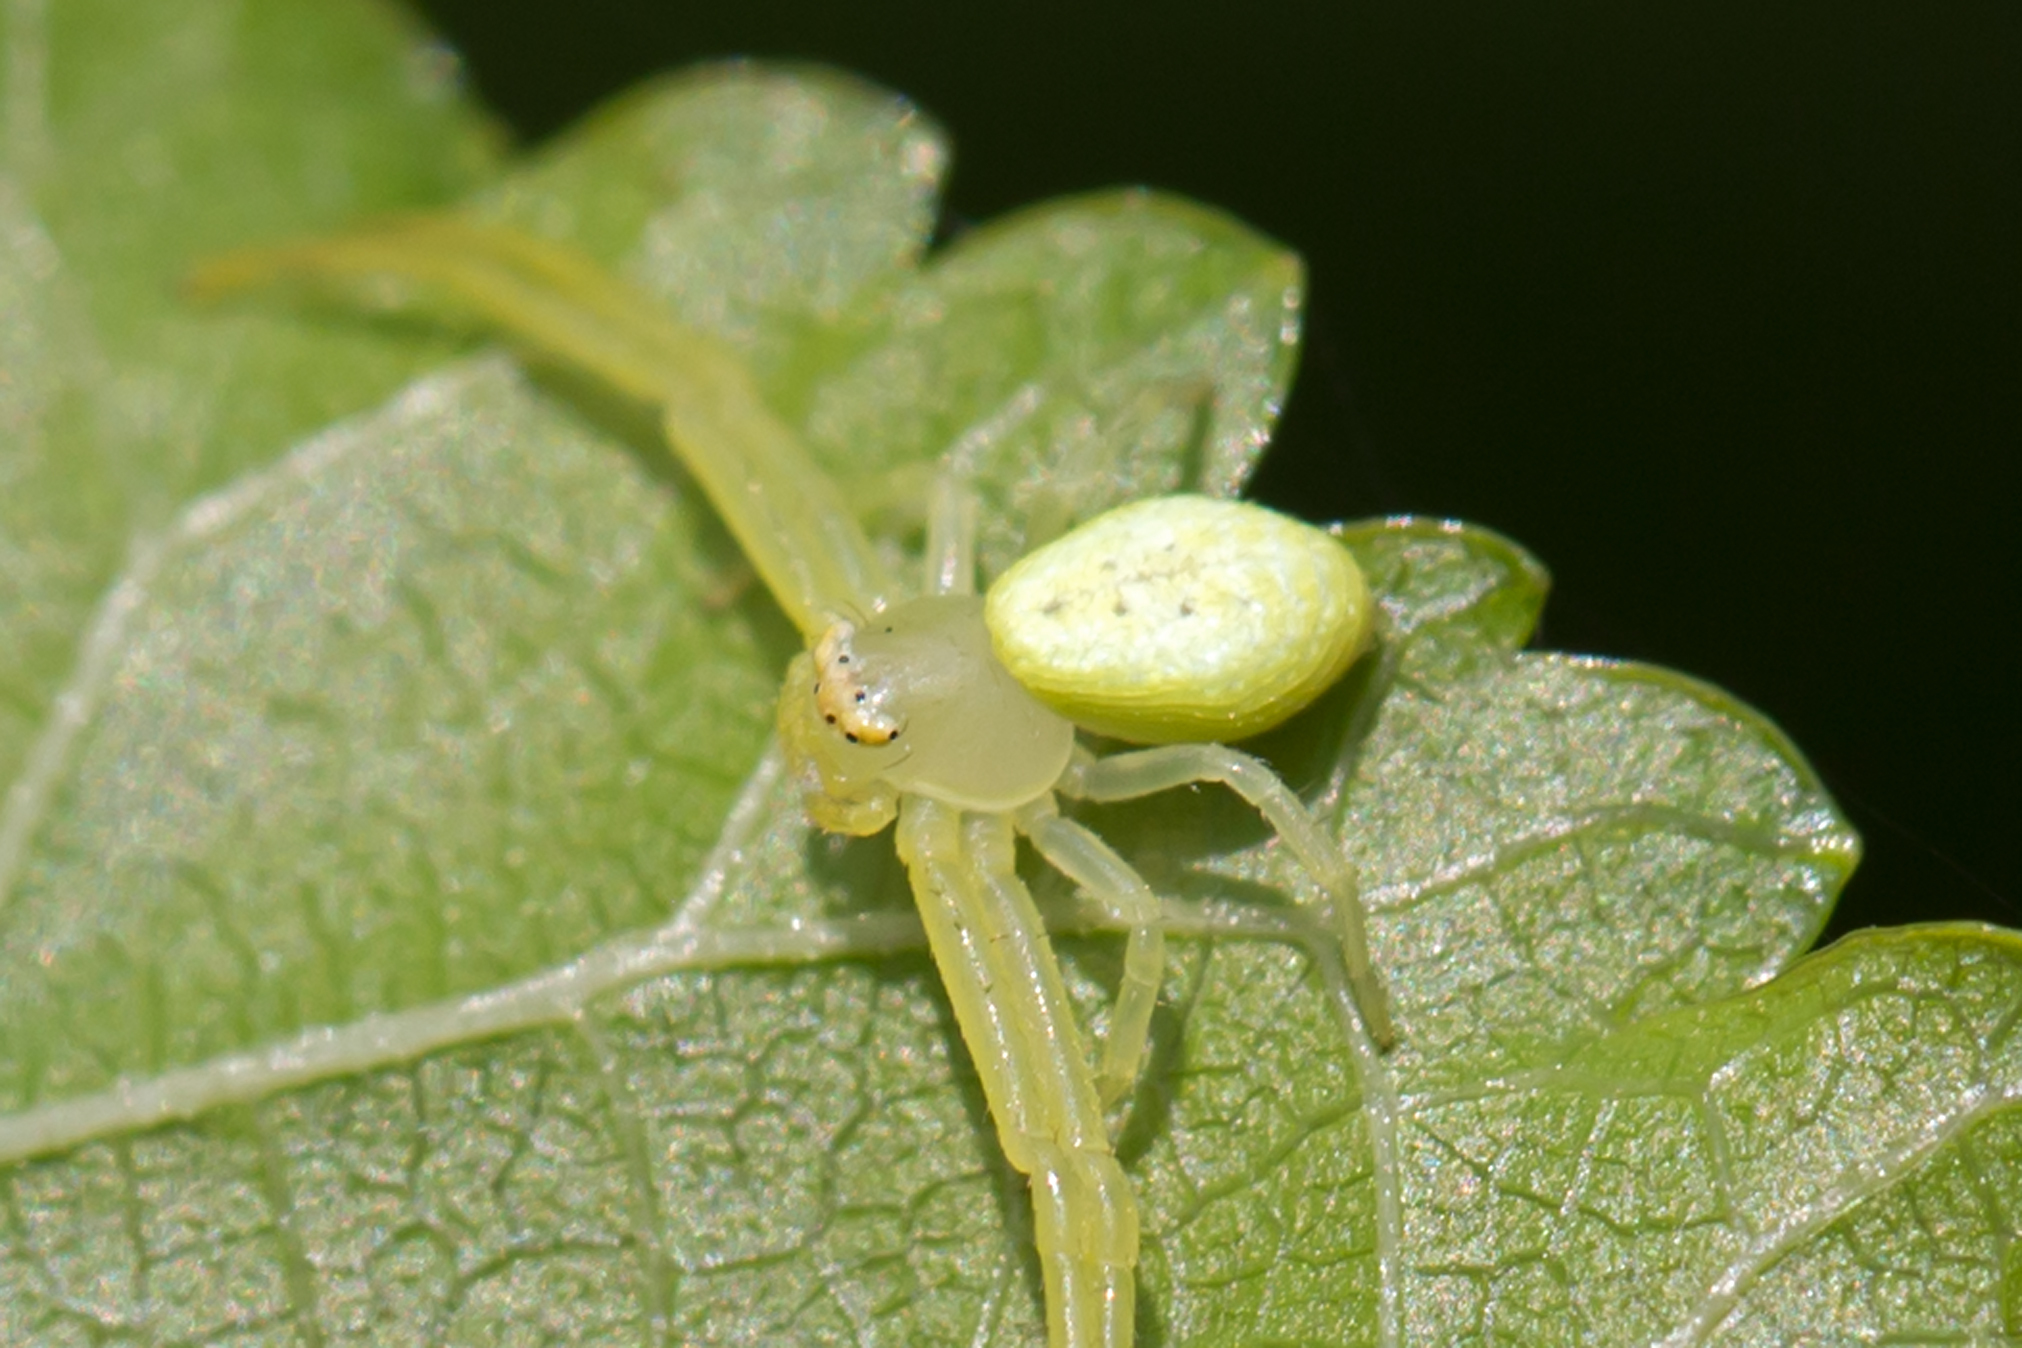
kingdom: Animalia
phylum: Arthropoda
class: Arachnida
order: Araneae
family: Thomisidae
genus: Misumessus
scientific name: Misumessus oblongus
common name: American green crab spider
